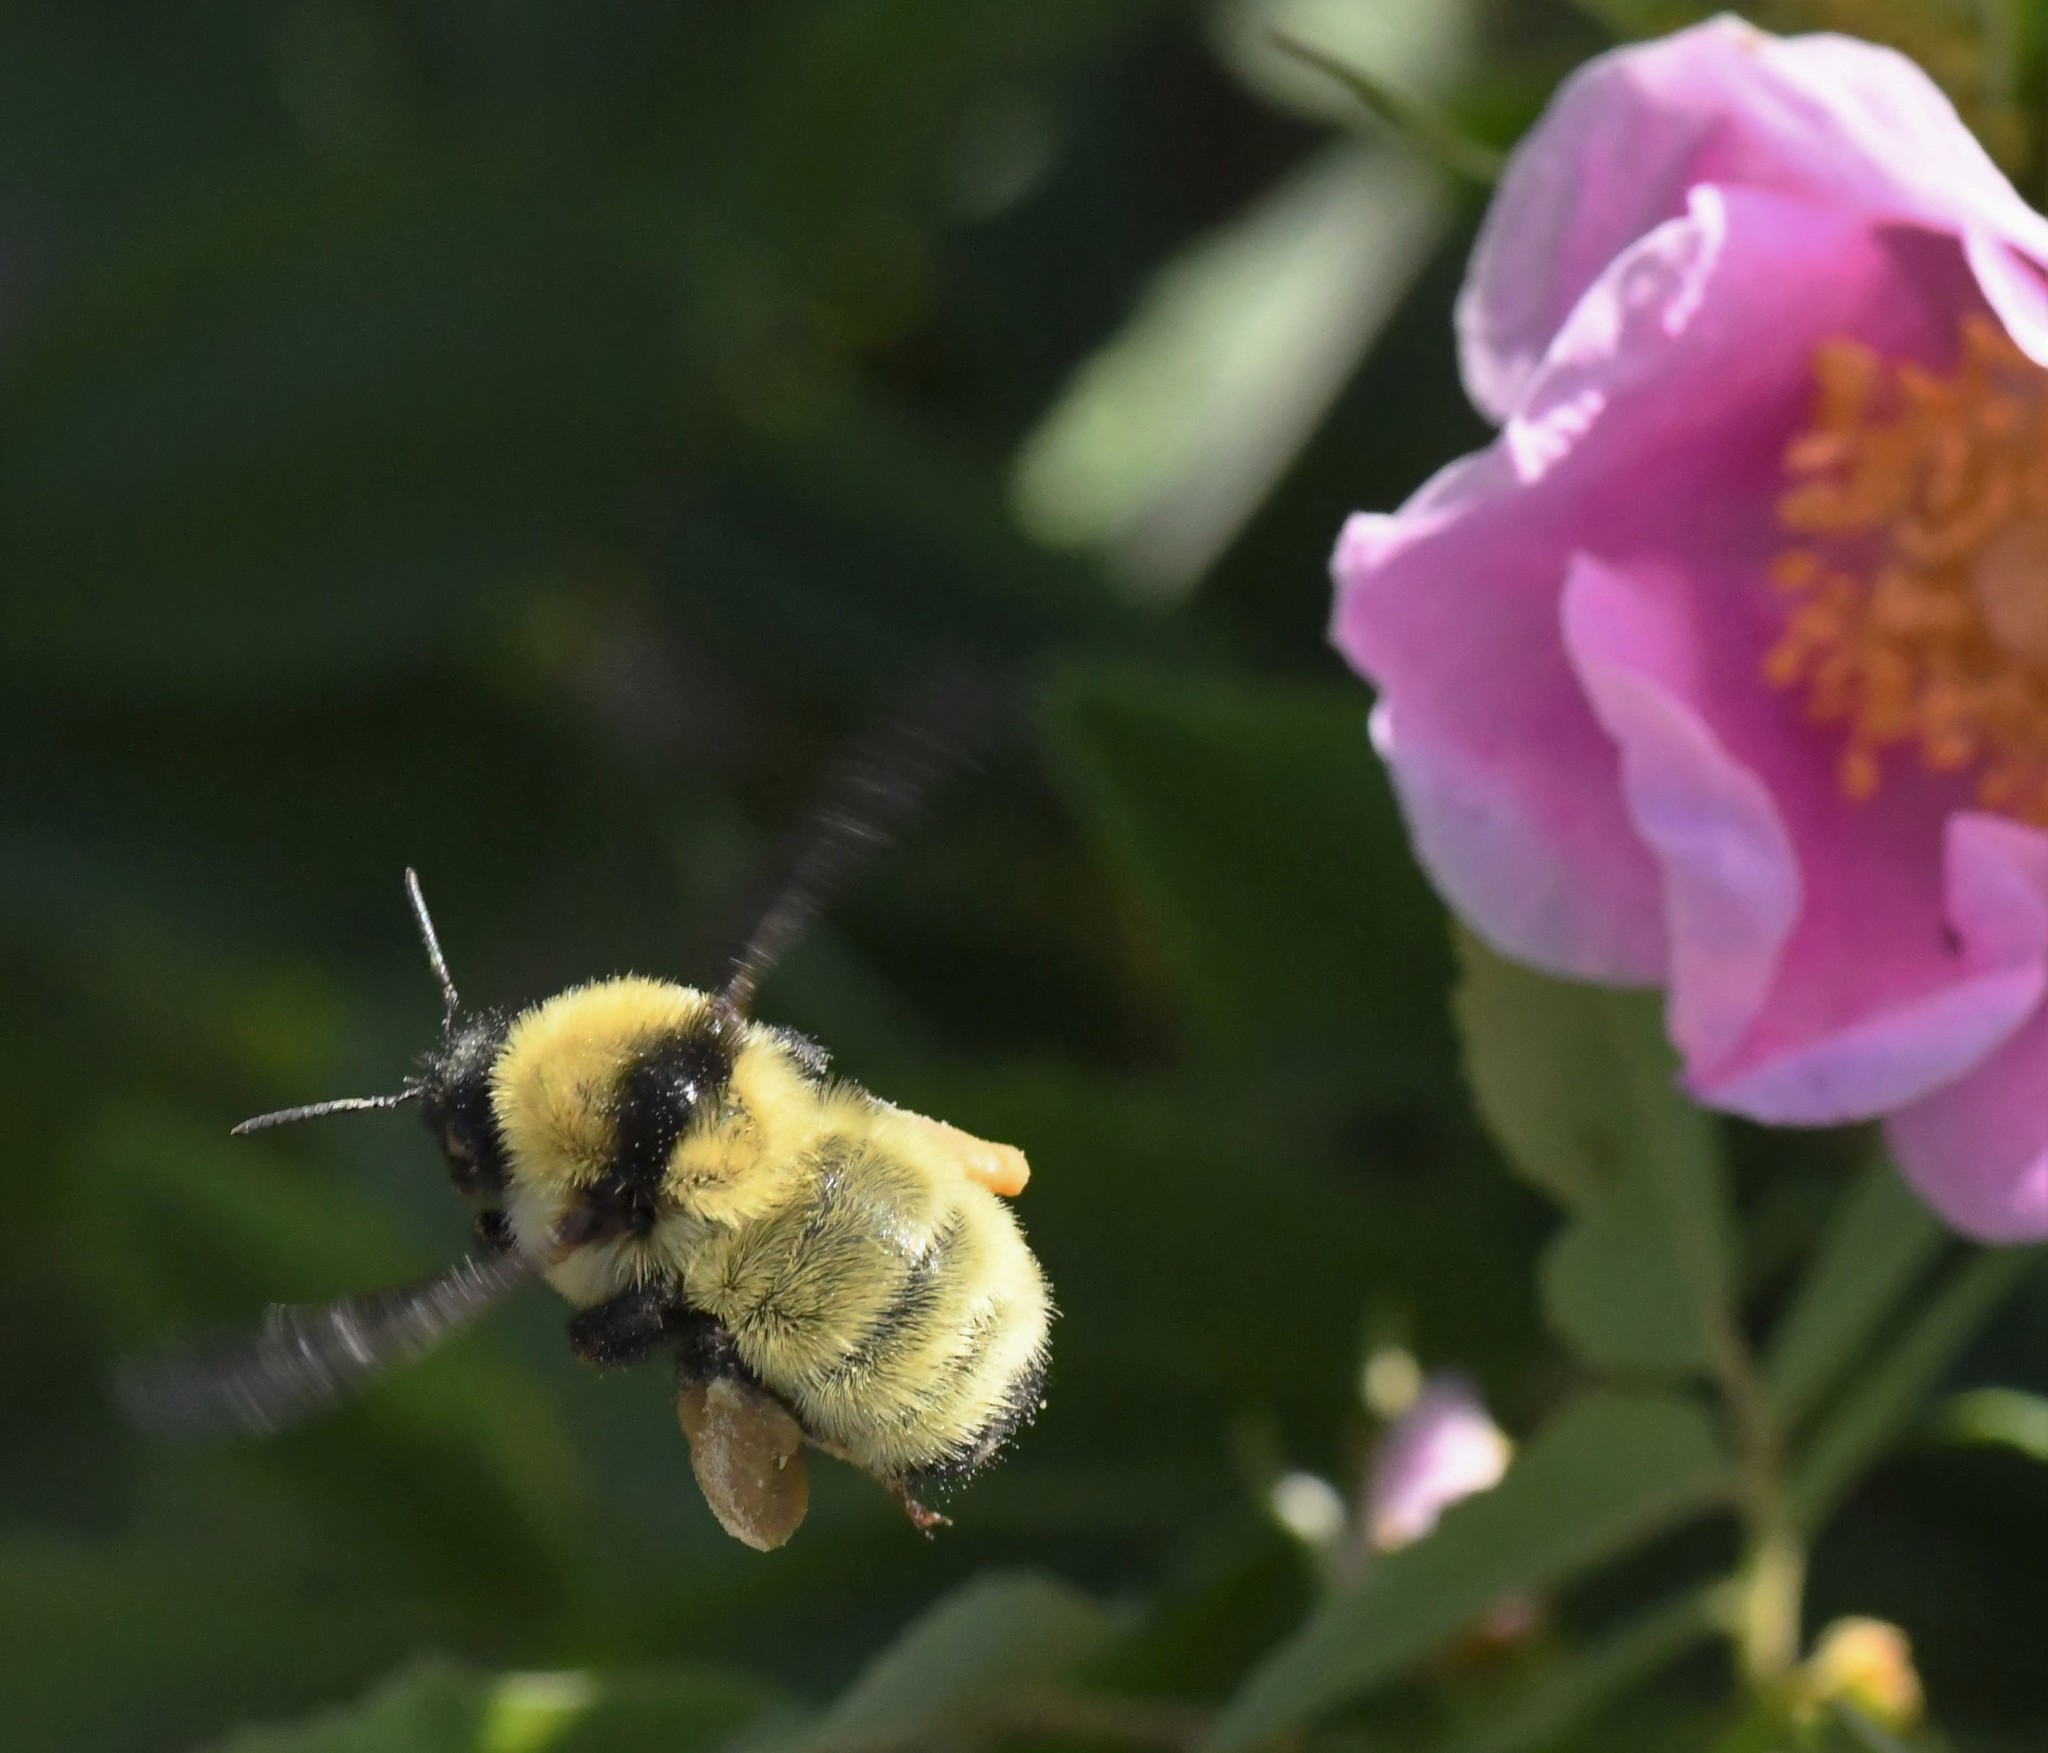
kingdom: Animalia
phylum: Arthropoda
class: Insecta
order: Hymenoptera
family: Apidae
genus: Bombus
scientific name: Bombus fervidus
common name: Yellow bumble bee
